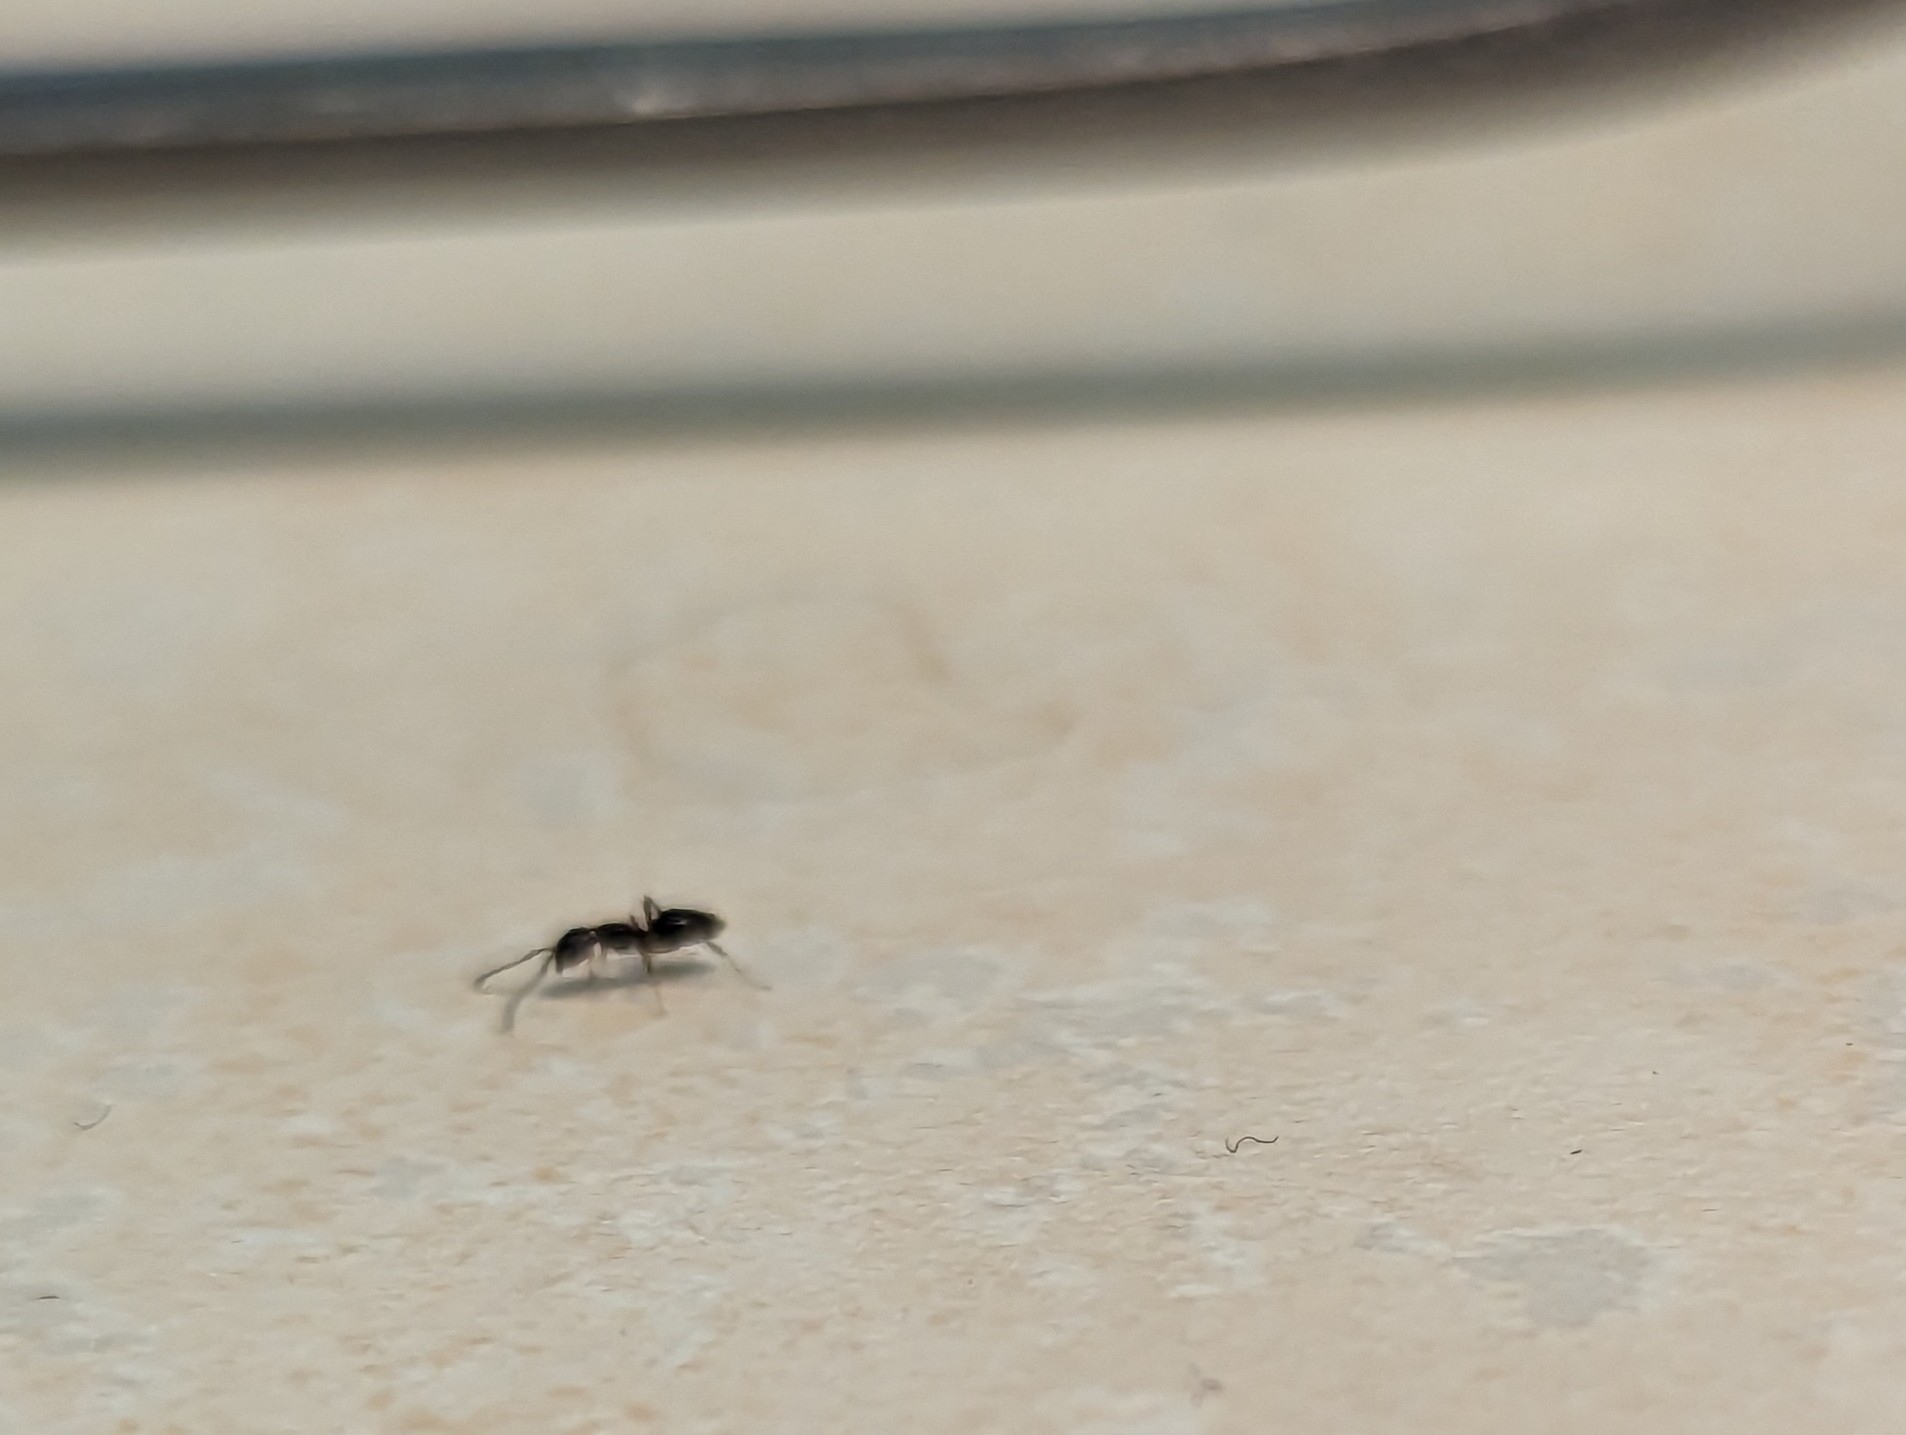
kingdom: Animalia
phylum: Arthropoda
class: Insecta
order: Hymenoptera
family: Formicidae
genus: Tapinoma
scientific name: Tapinoma sessile
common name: Odorous house ant
